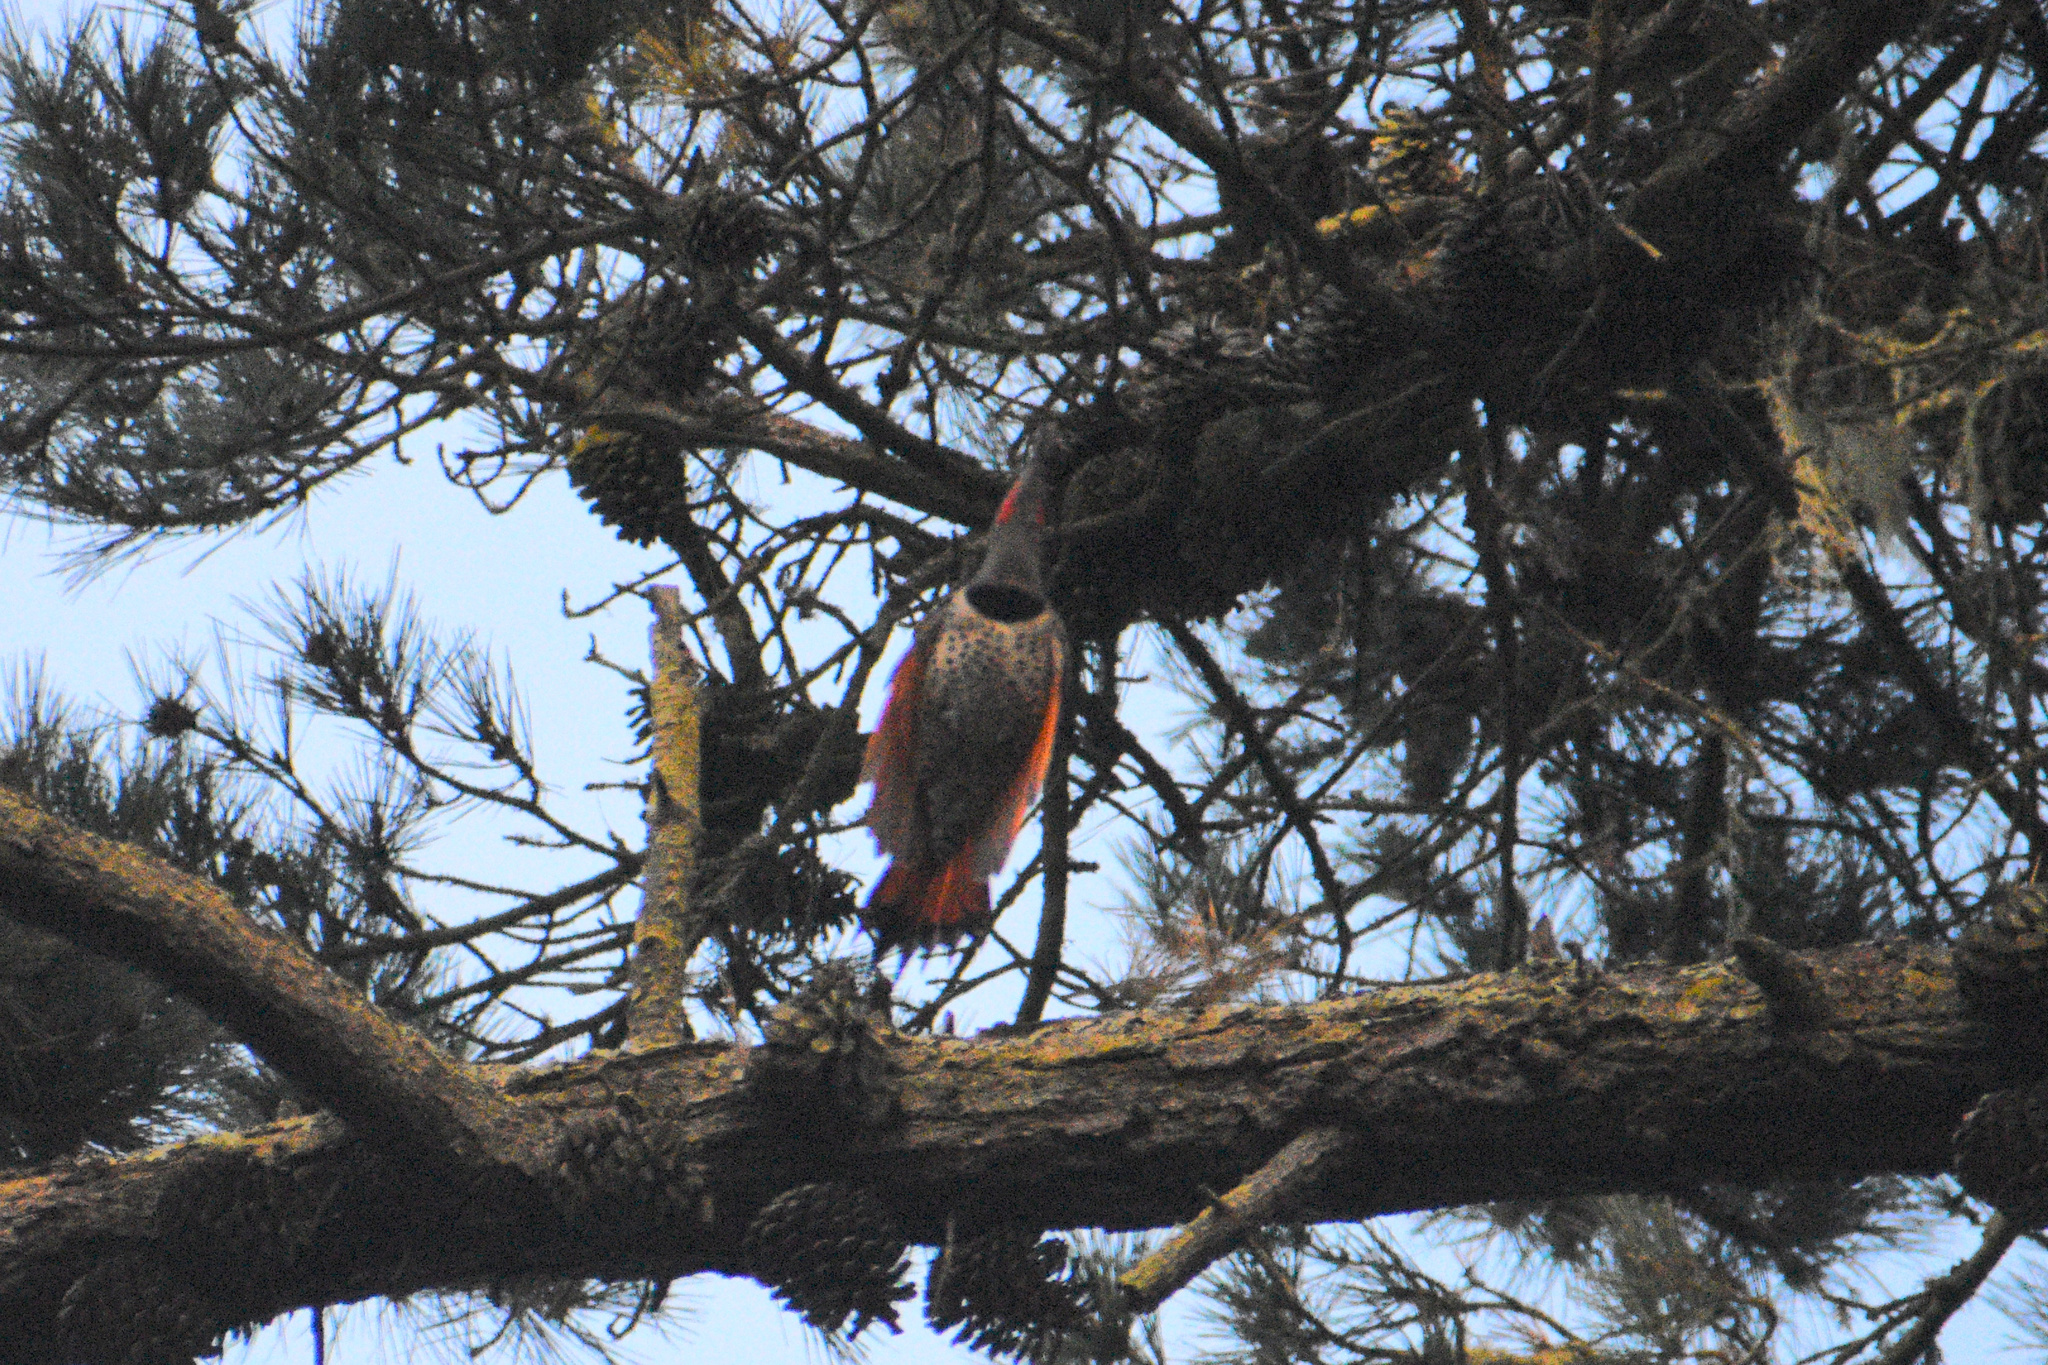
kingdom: Animalia
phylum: Chordata
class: Aves
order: Piciformes
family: Picidae
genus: Colaptes
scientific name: Colaptes auratus
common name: Northern flicker
